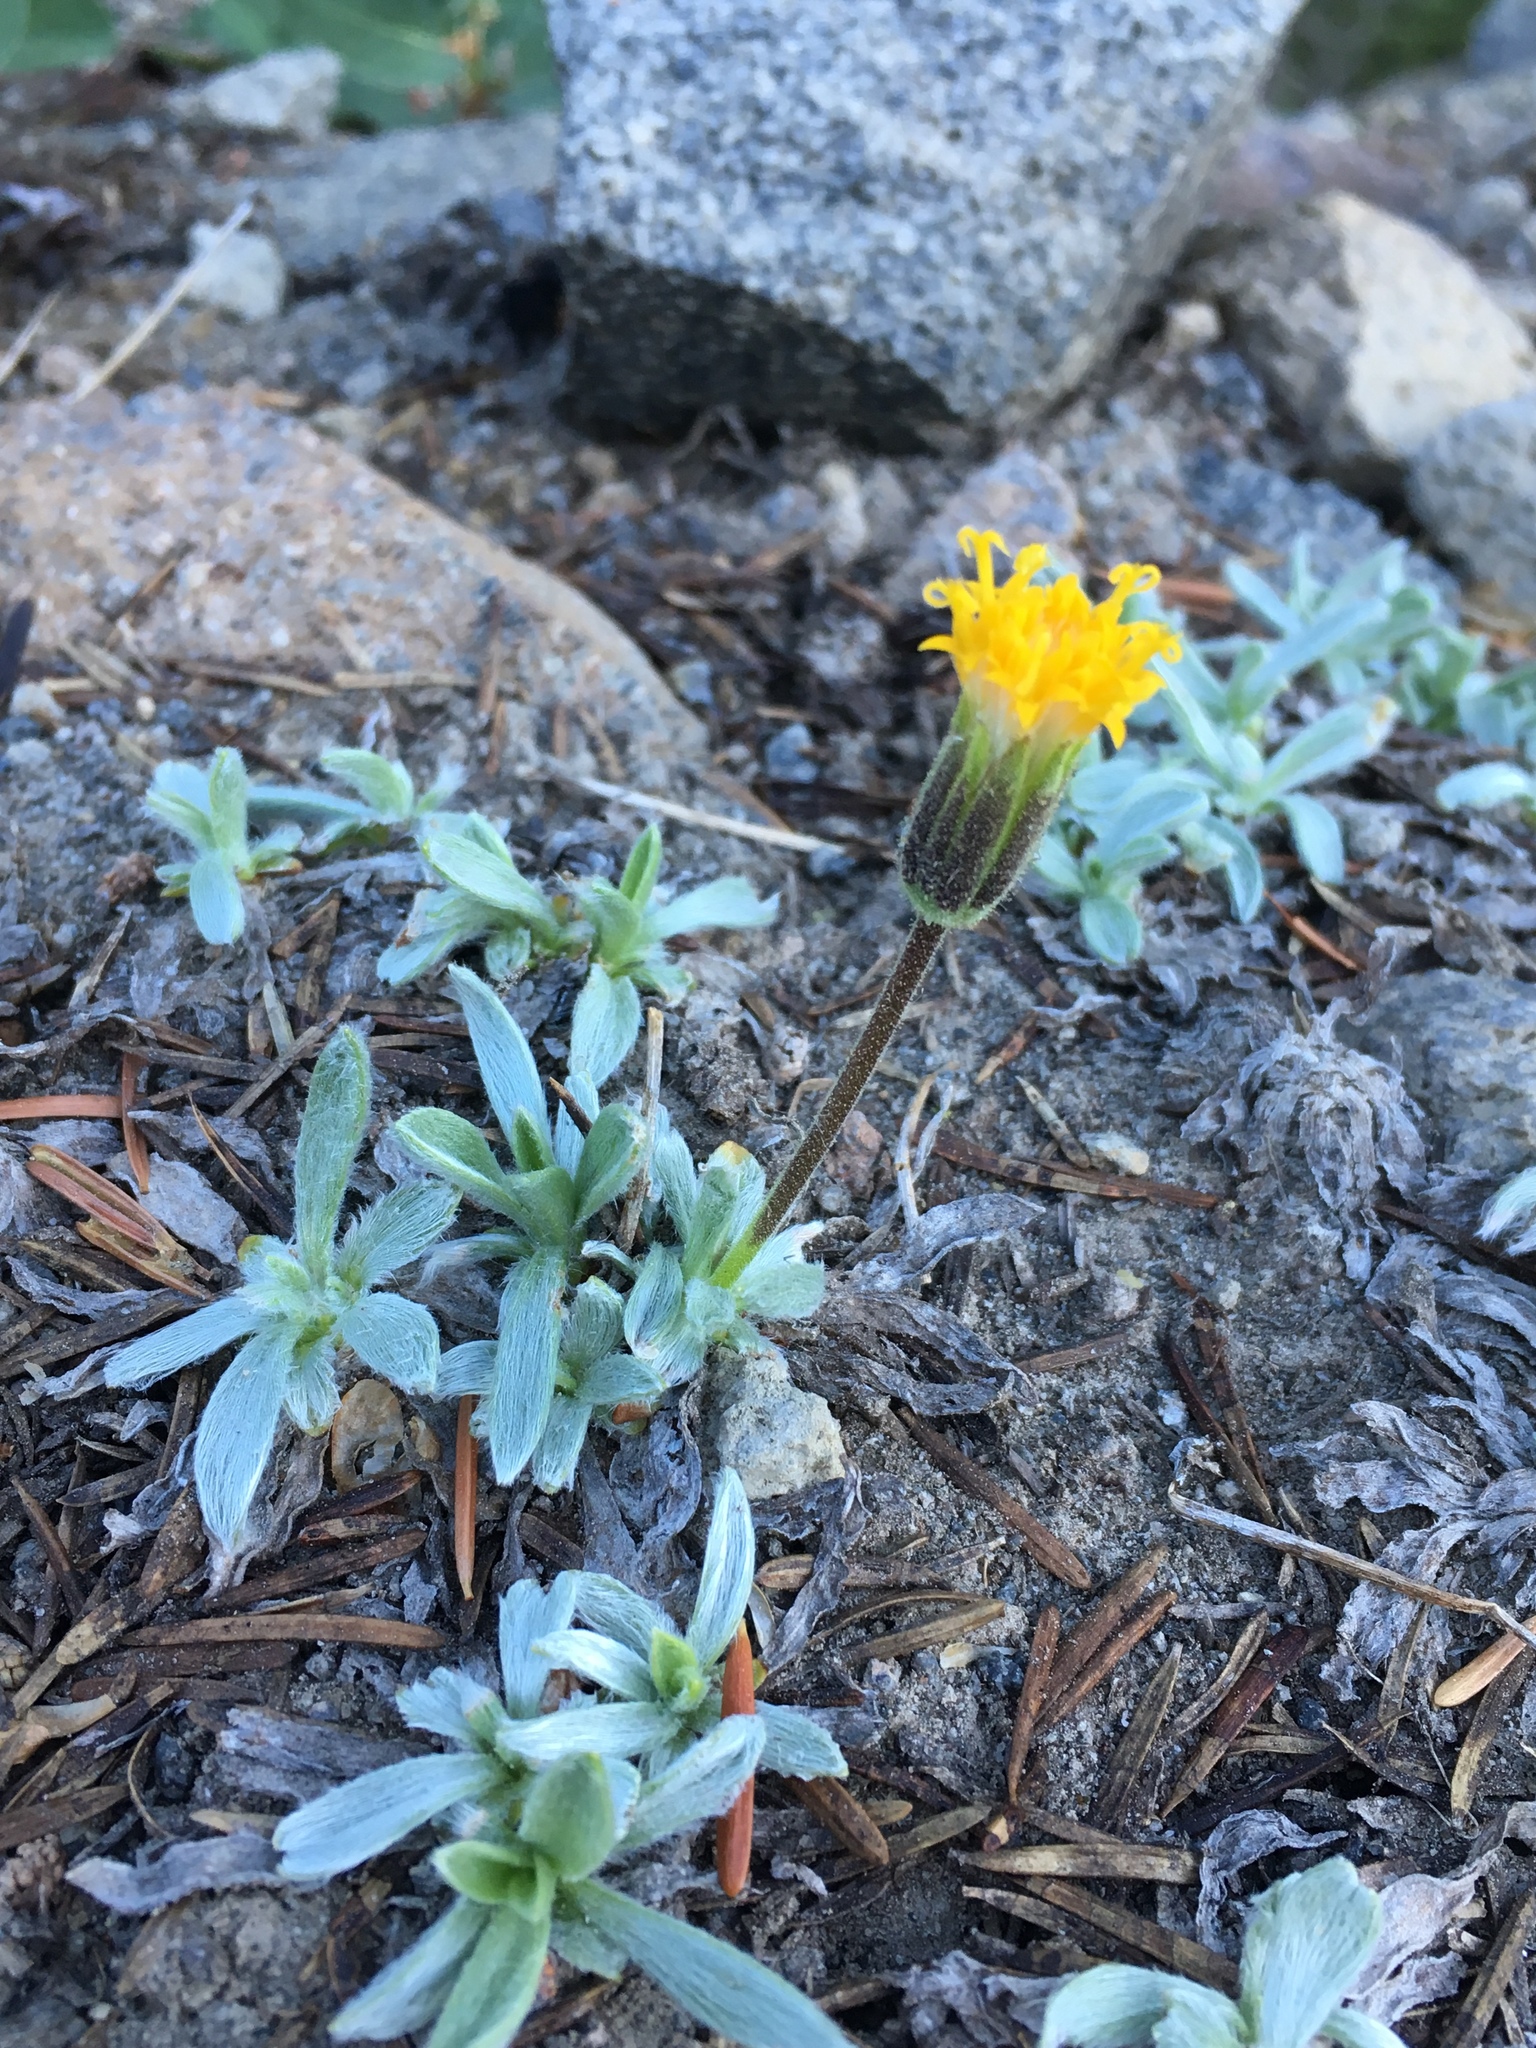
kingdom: Plantae
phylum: Tracheophyta
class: Magnoliopsida
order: Asterales
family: Asteraceae
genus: Raillardella
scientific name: Raillardella argentea
